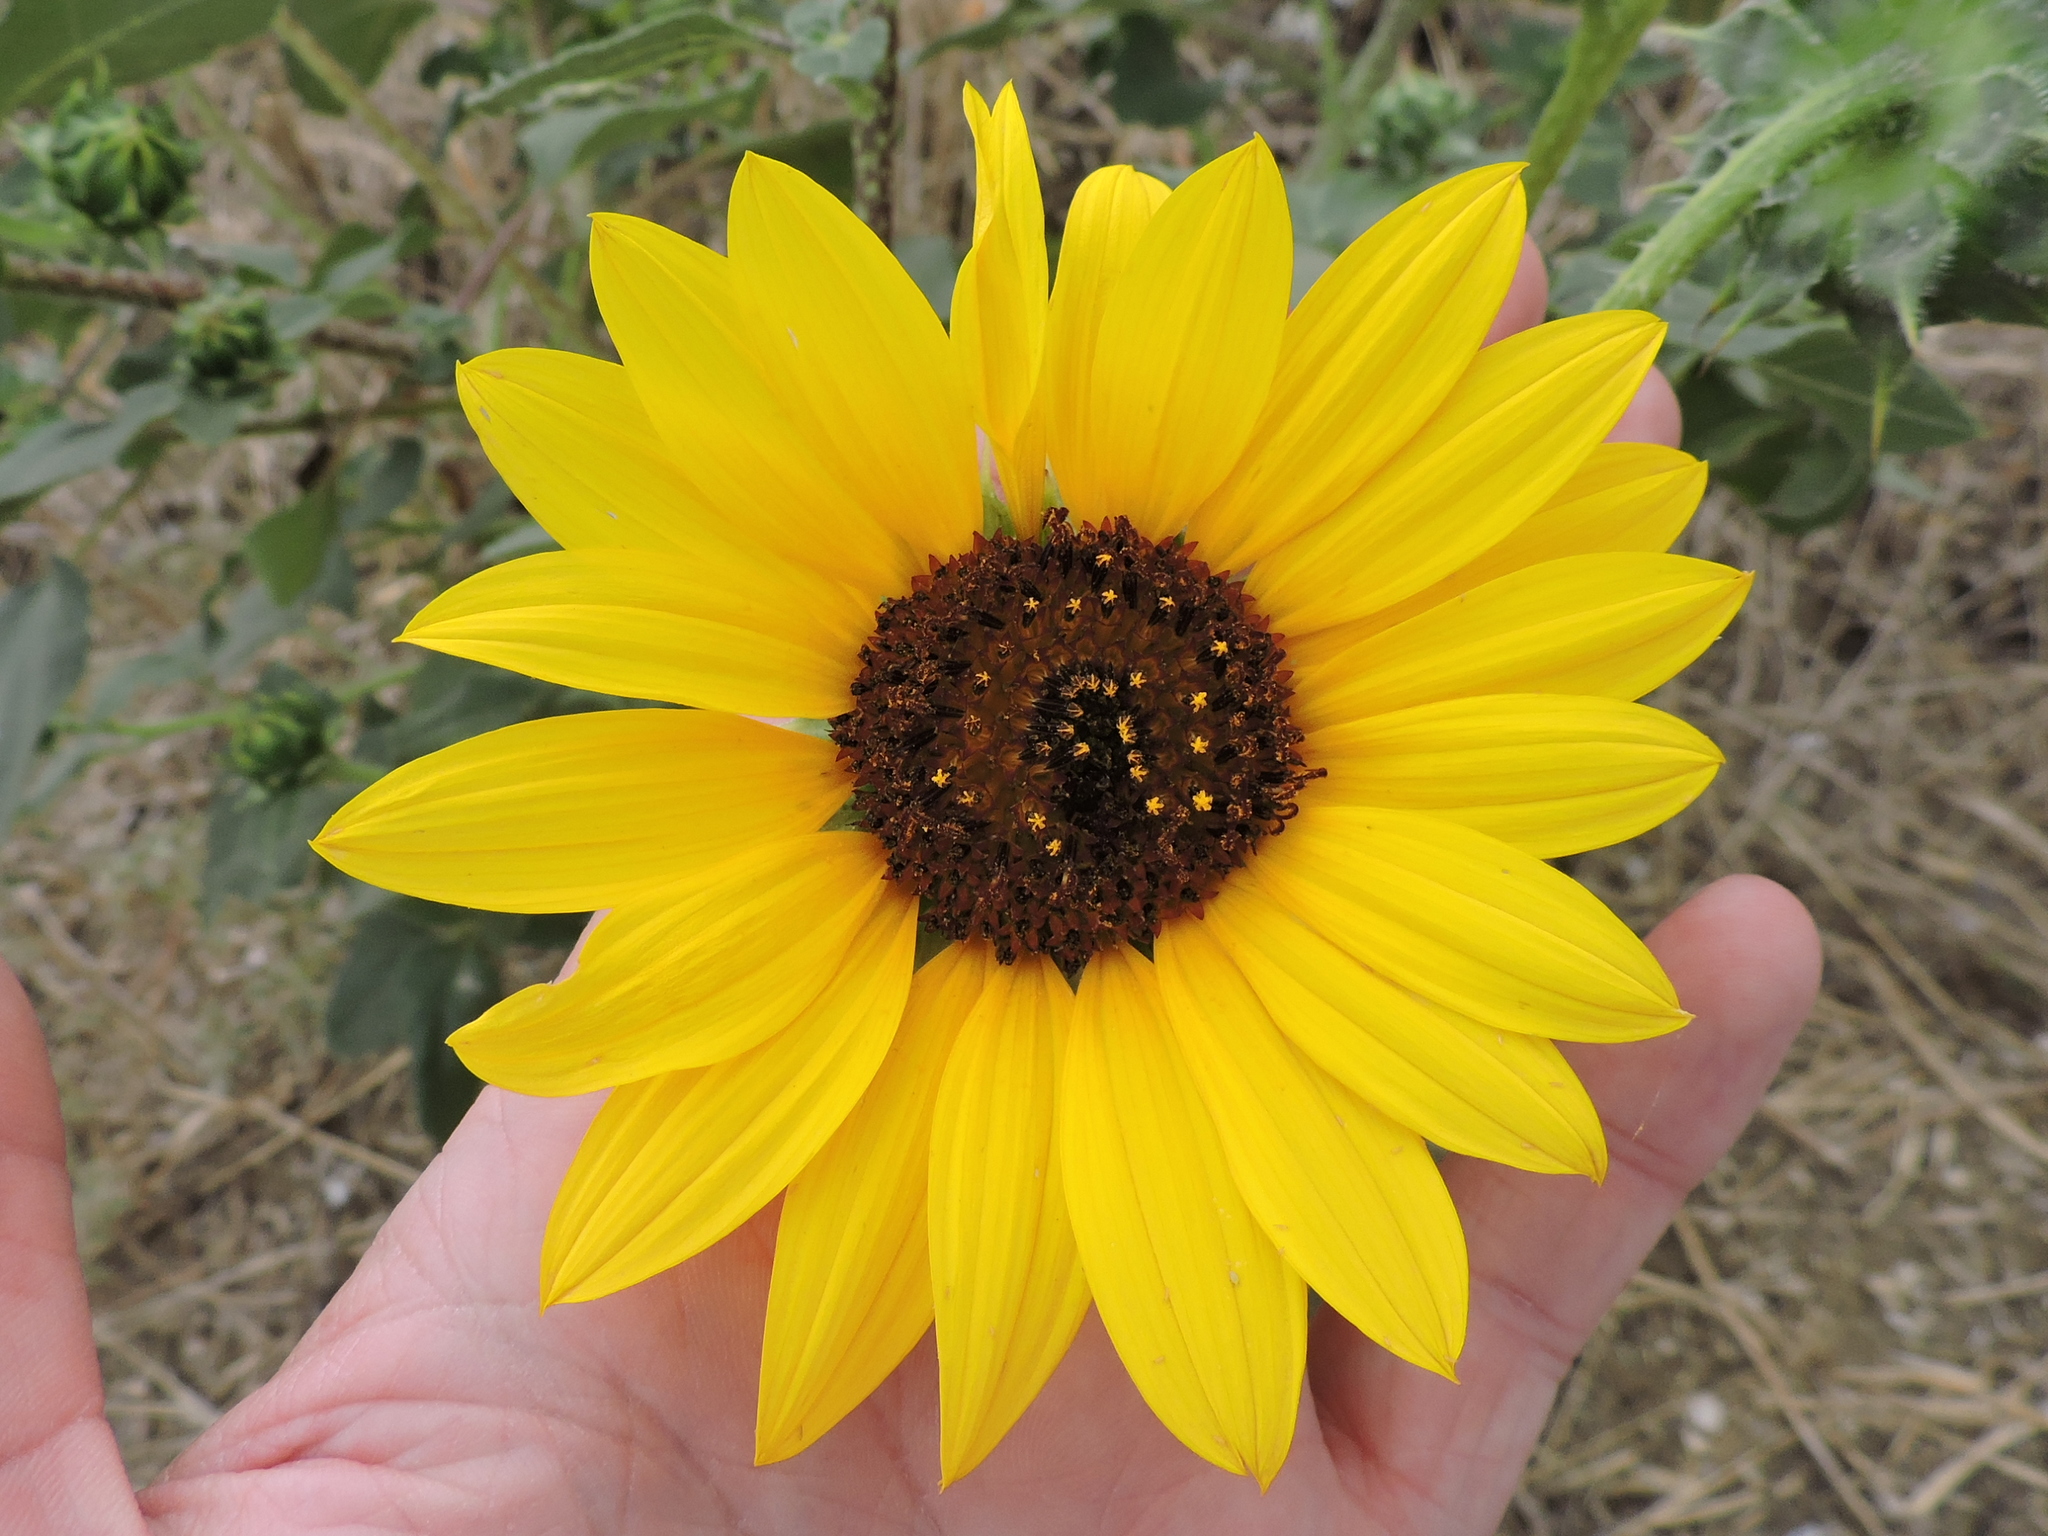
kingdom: Plantae
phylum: Tracheophyta
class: Magnoliopsida
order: Asterales
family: Asteraceae
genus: Helianthus
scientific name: Helianthus annuus
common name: Sunflower
